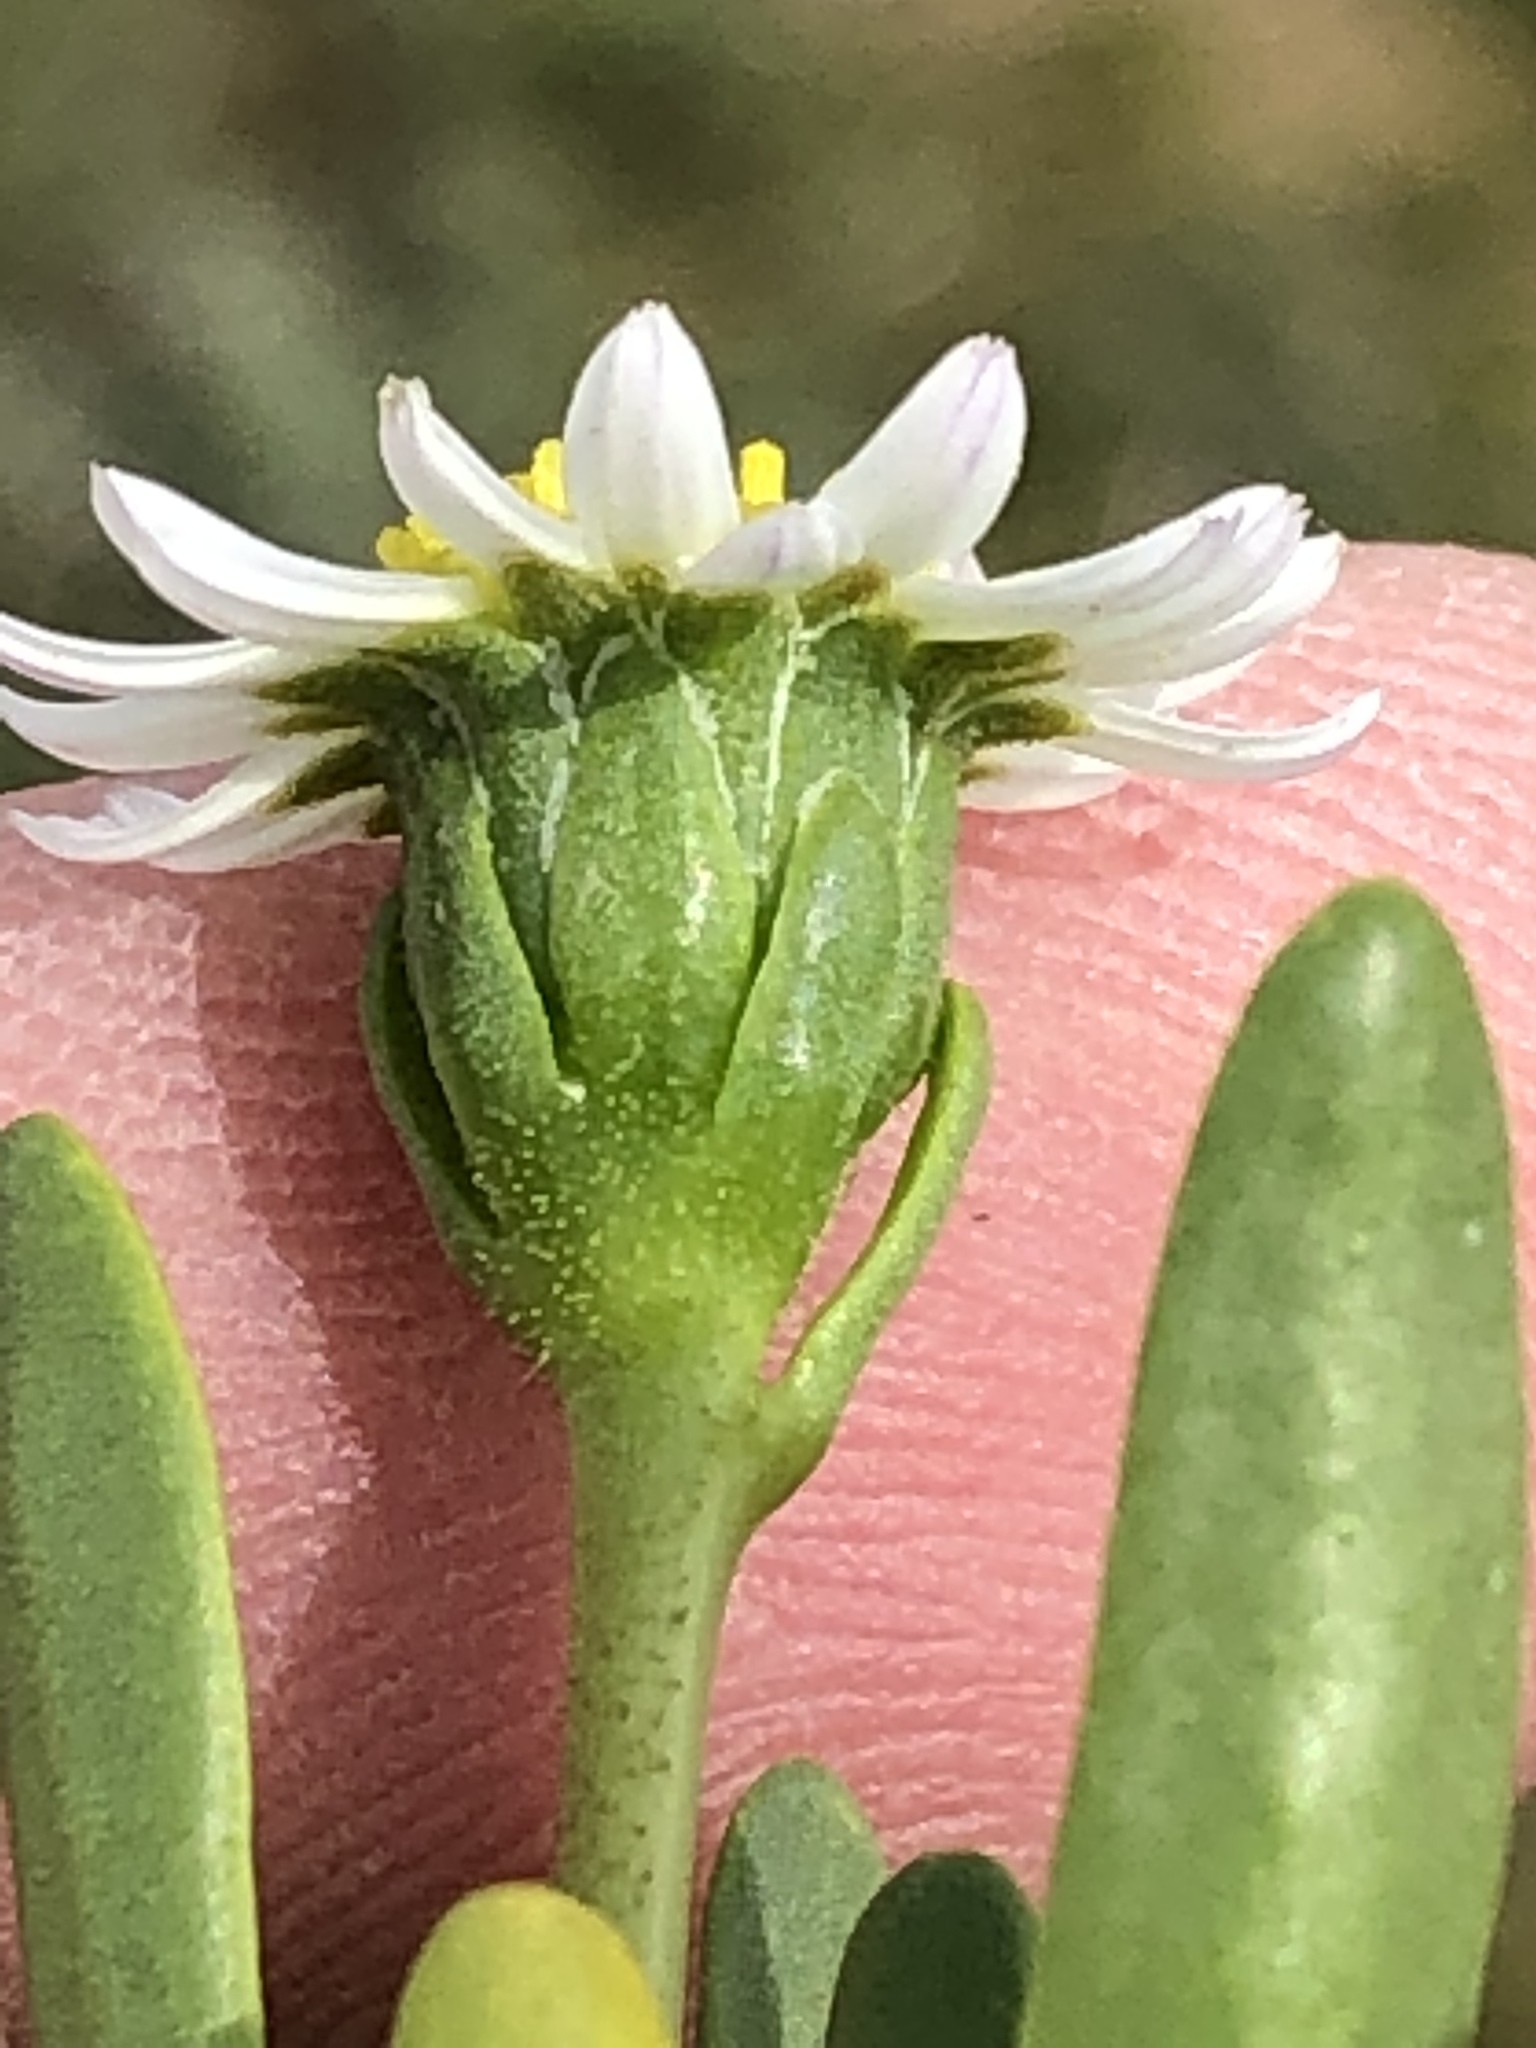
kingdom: Plantae
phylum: Tracheophyta
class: Magnoliopsida
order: Asterales
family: Asteraceae
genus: Poecilolepis
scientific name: Poecilolepis ficoidea
